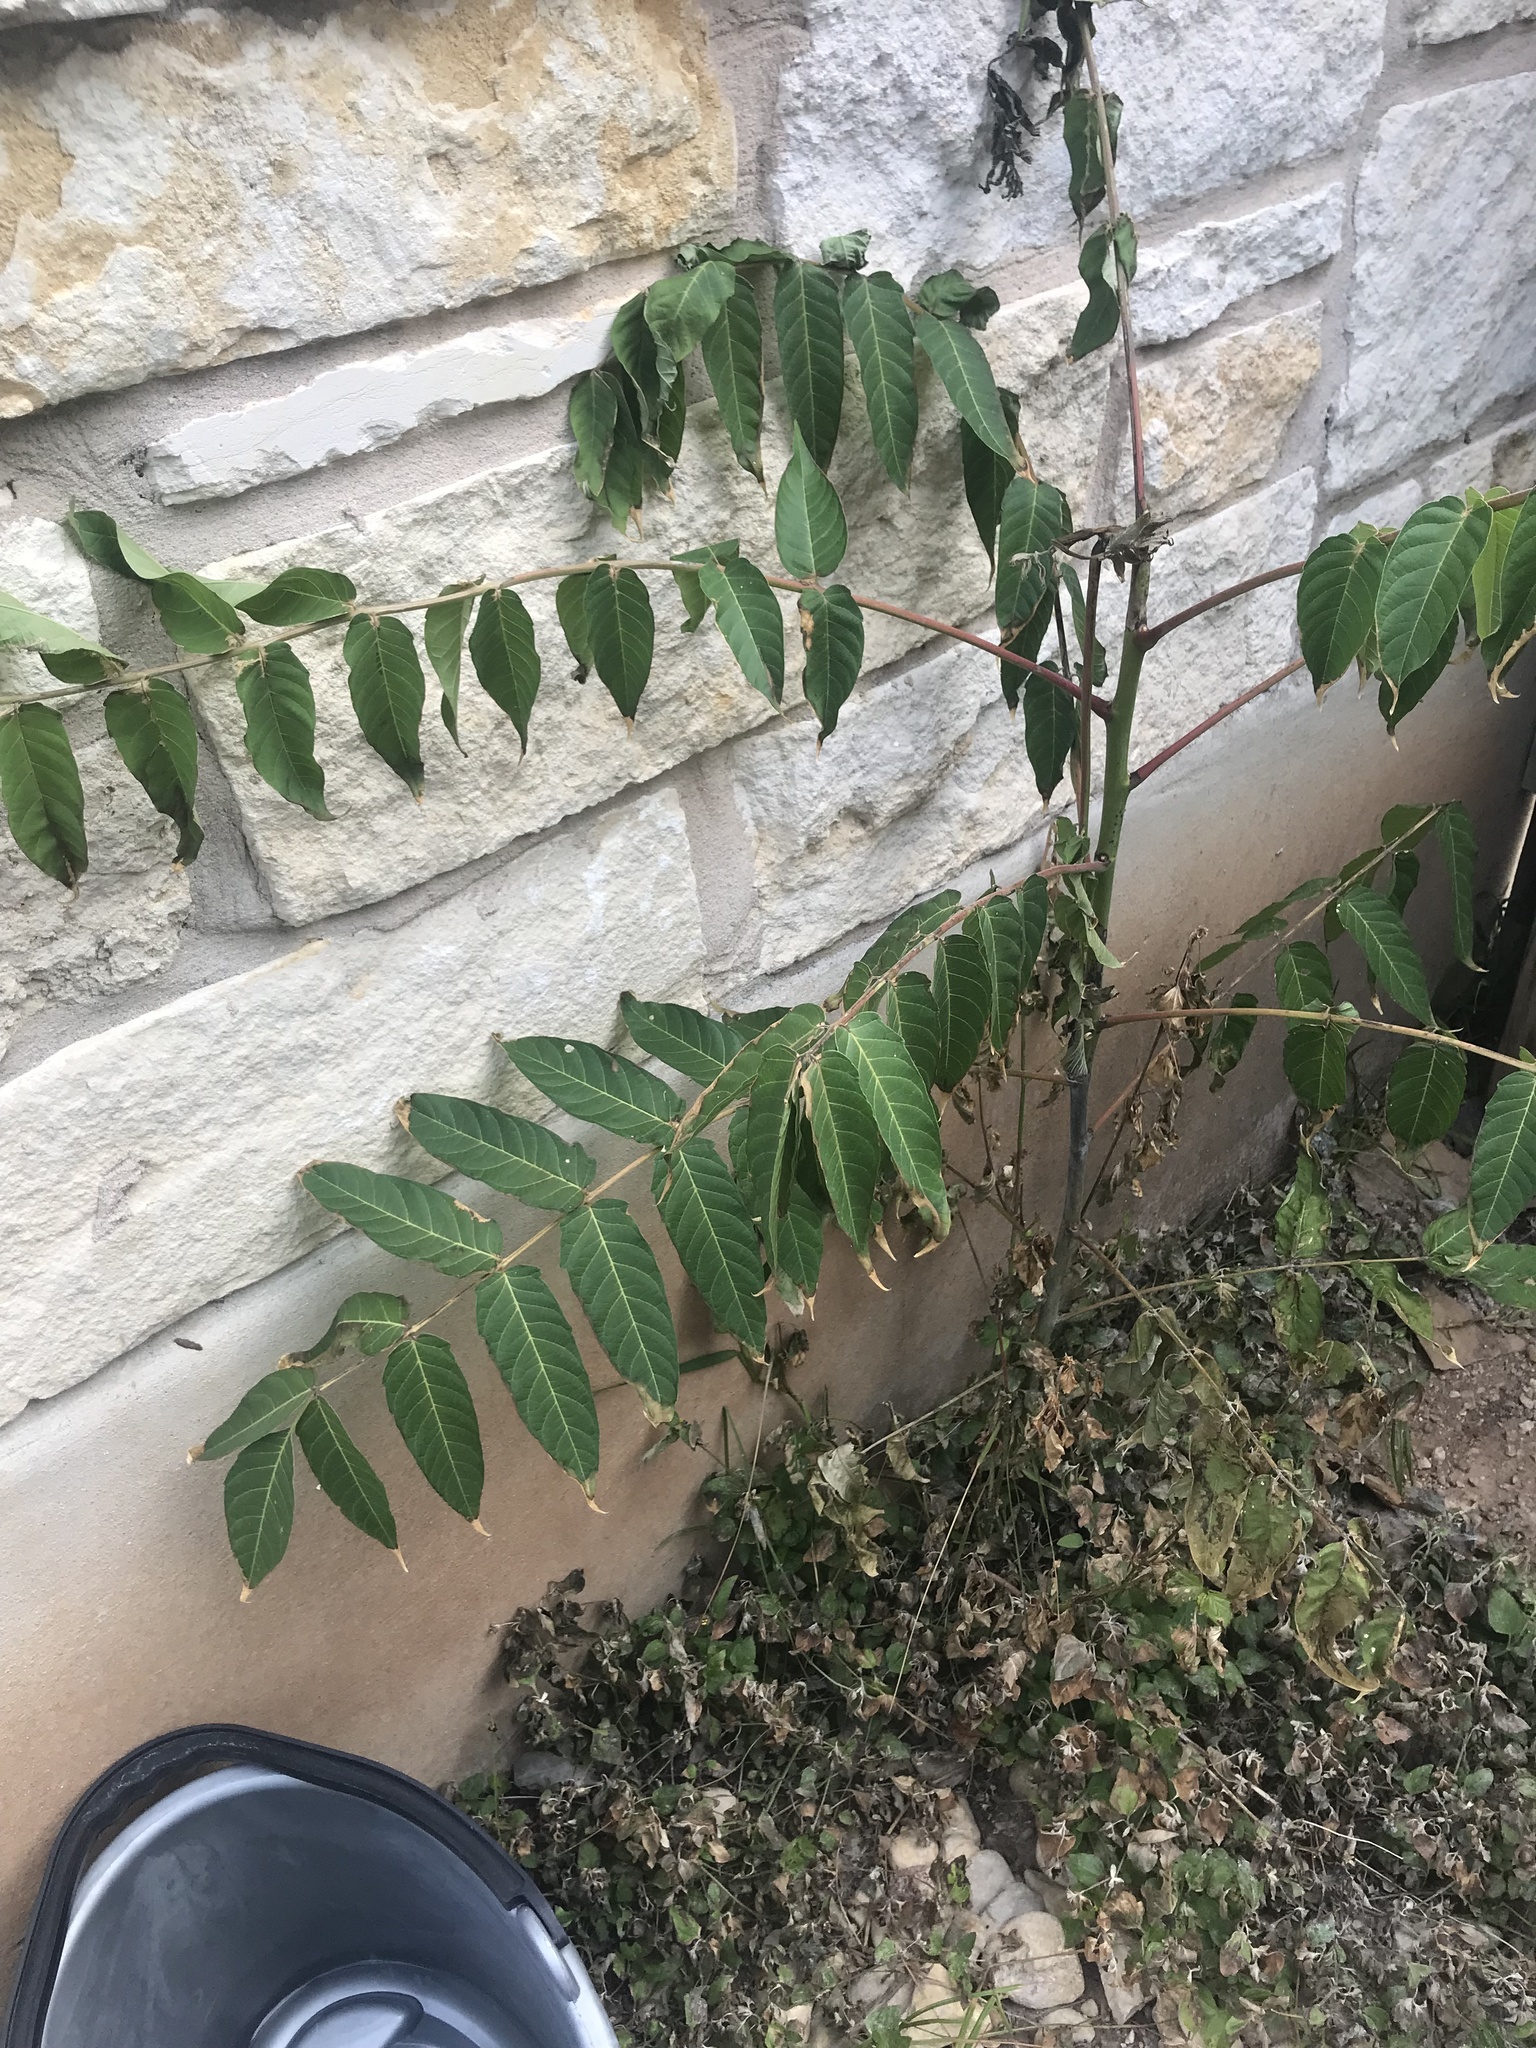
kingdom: Plantae
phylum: Tracheophyta
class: Magnoliopsida
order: Sapindales
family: Simaroubaceae
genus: Ailanthus
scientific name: Ailanthus altissima
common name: Tree-of-heaven
